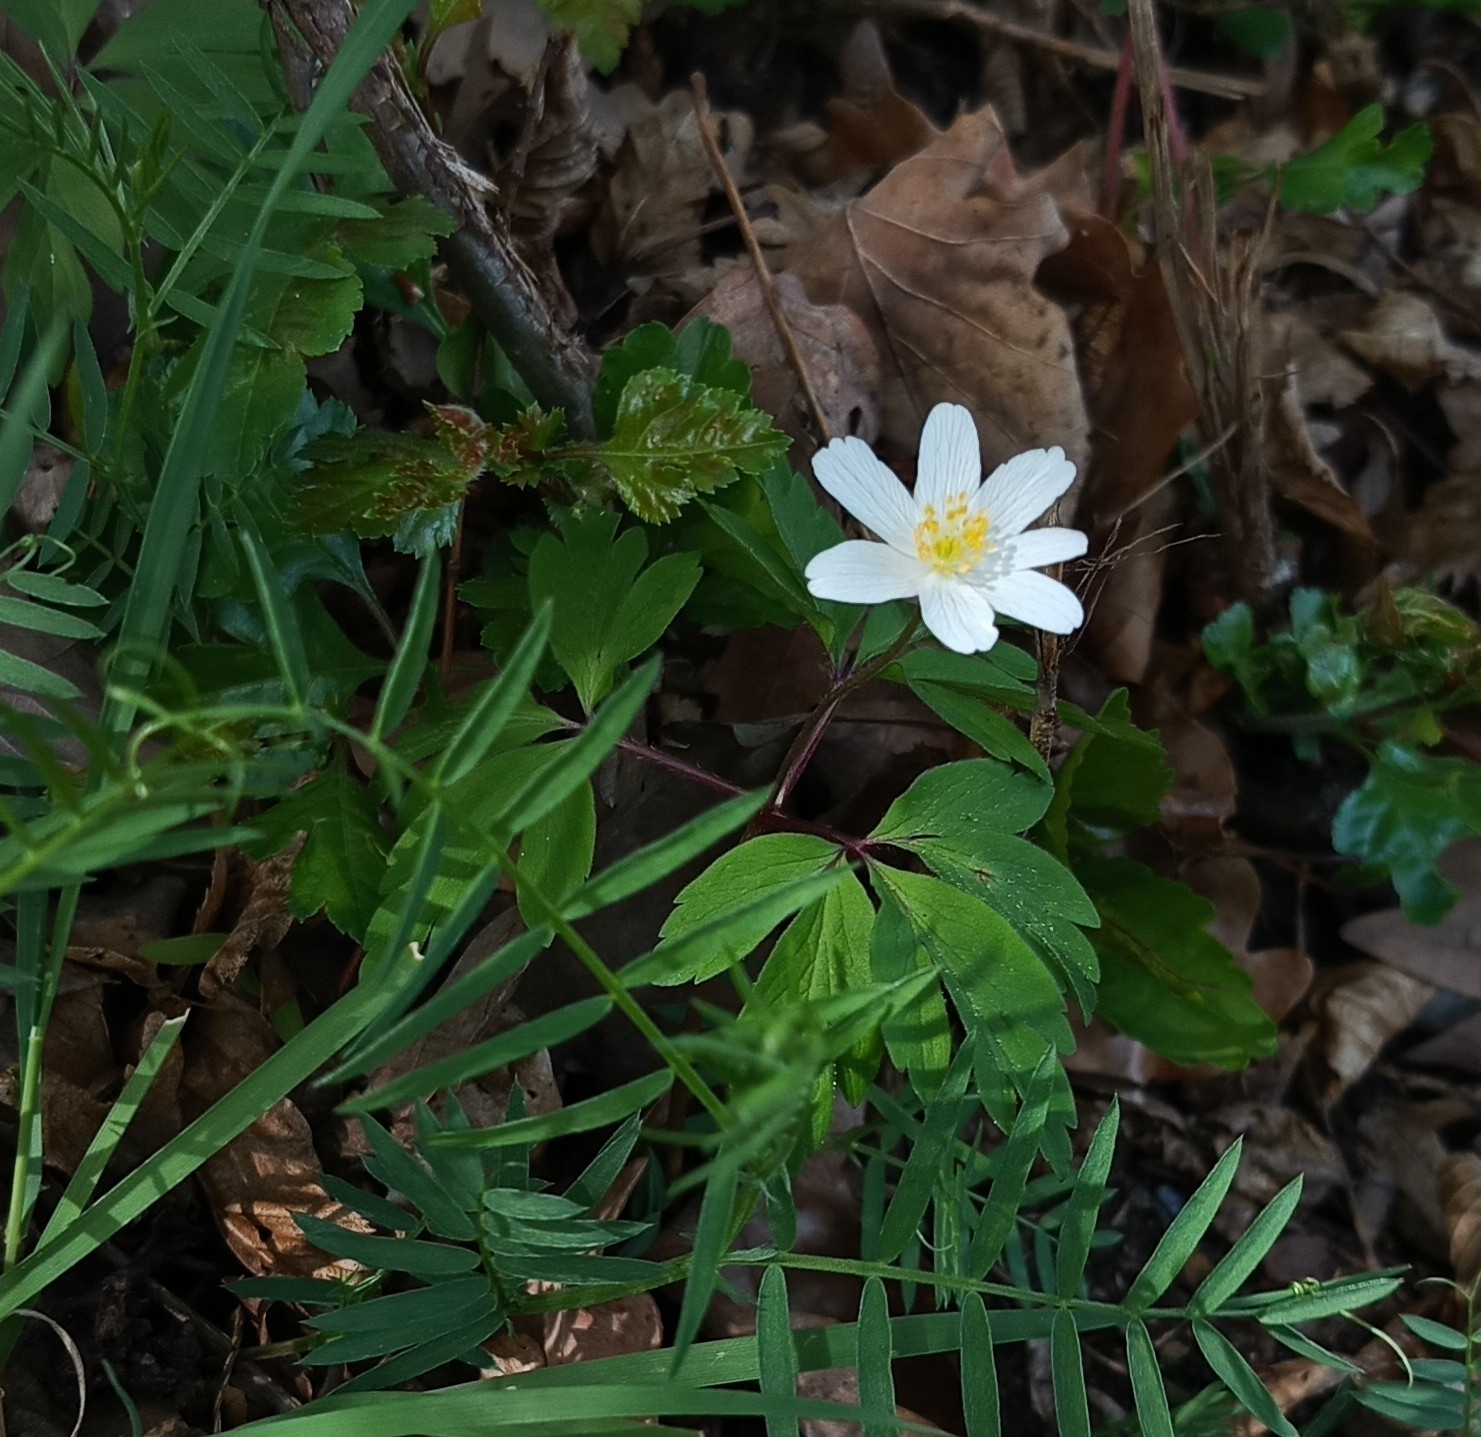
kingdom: Plantae
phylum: Tracheophyta
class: Magnoliopsida
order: Ranunculales
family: Ranunculaceae
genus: Anemone
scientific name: Anemone nemorosa
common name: Wood anemone
